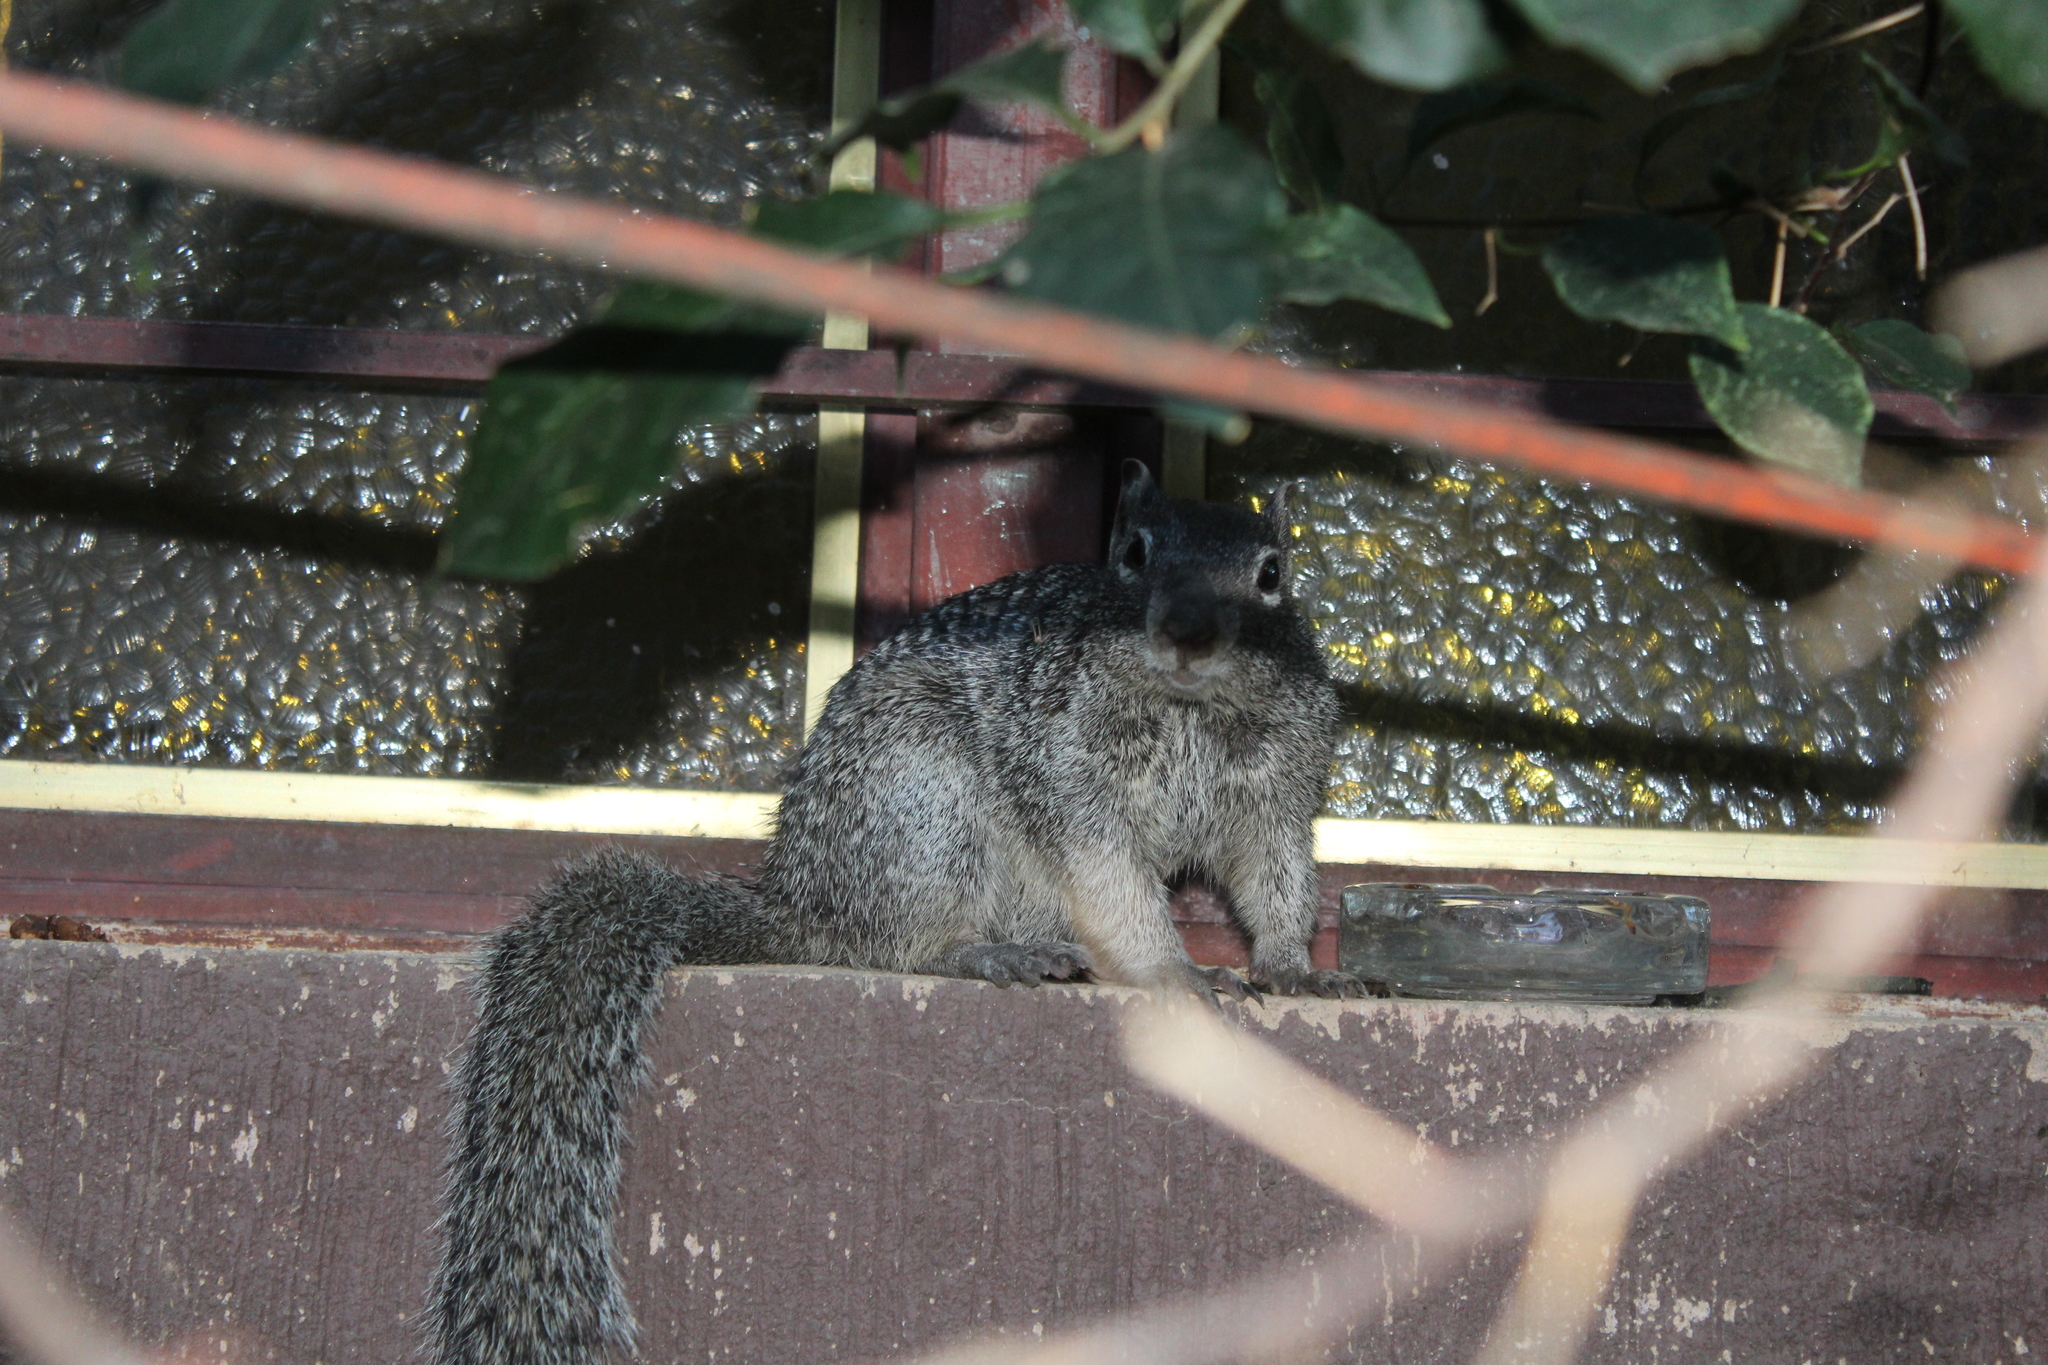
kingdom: Animalia
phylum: Chordata
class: Mammalia
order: Rodentia
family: Sciuridae
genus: Otospermophilus
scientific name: Otospermophilus variegatus
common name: Rock squirrel
